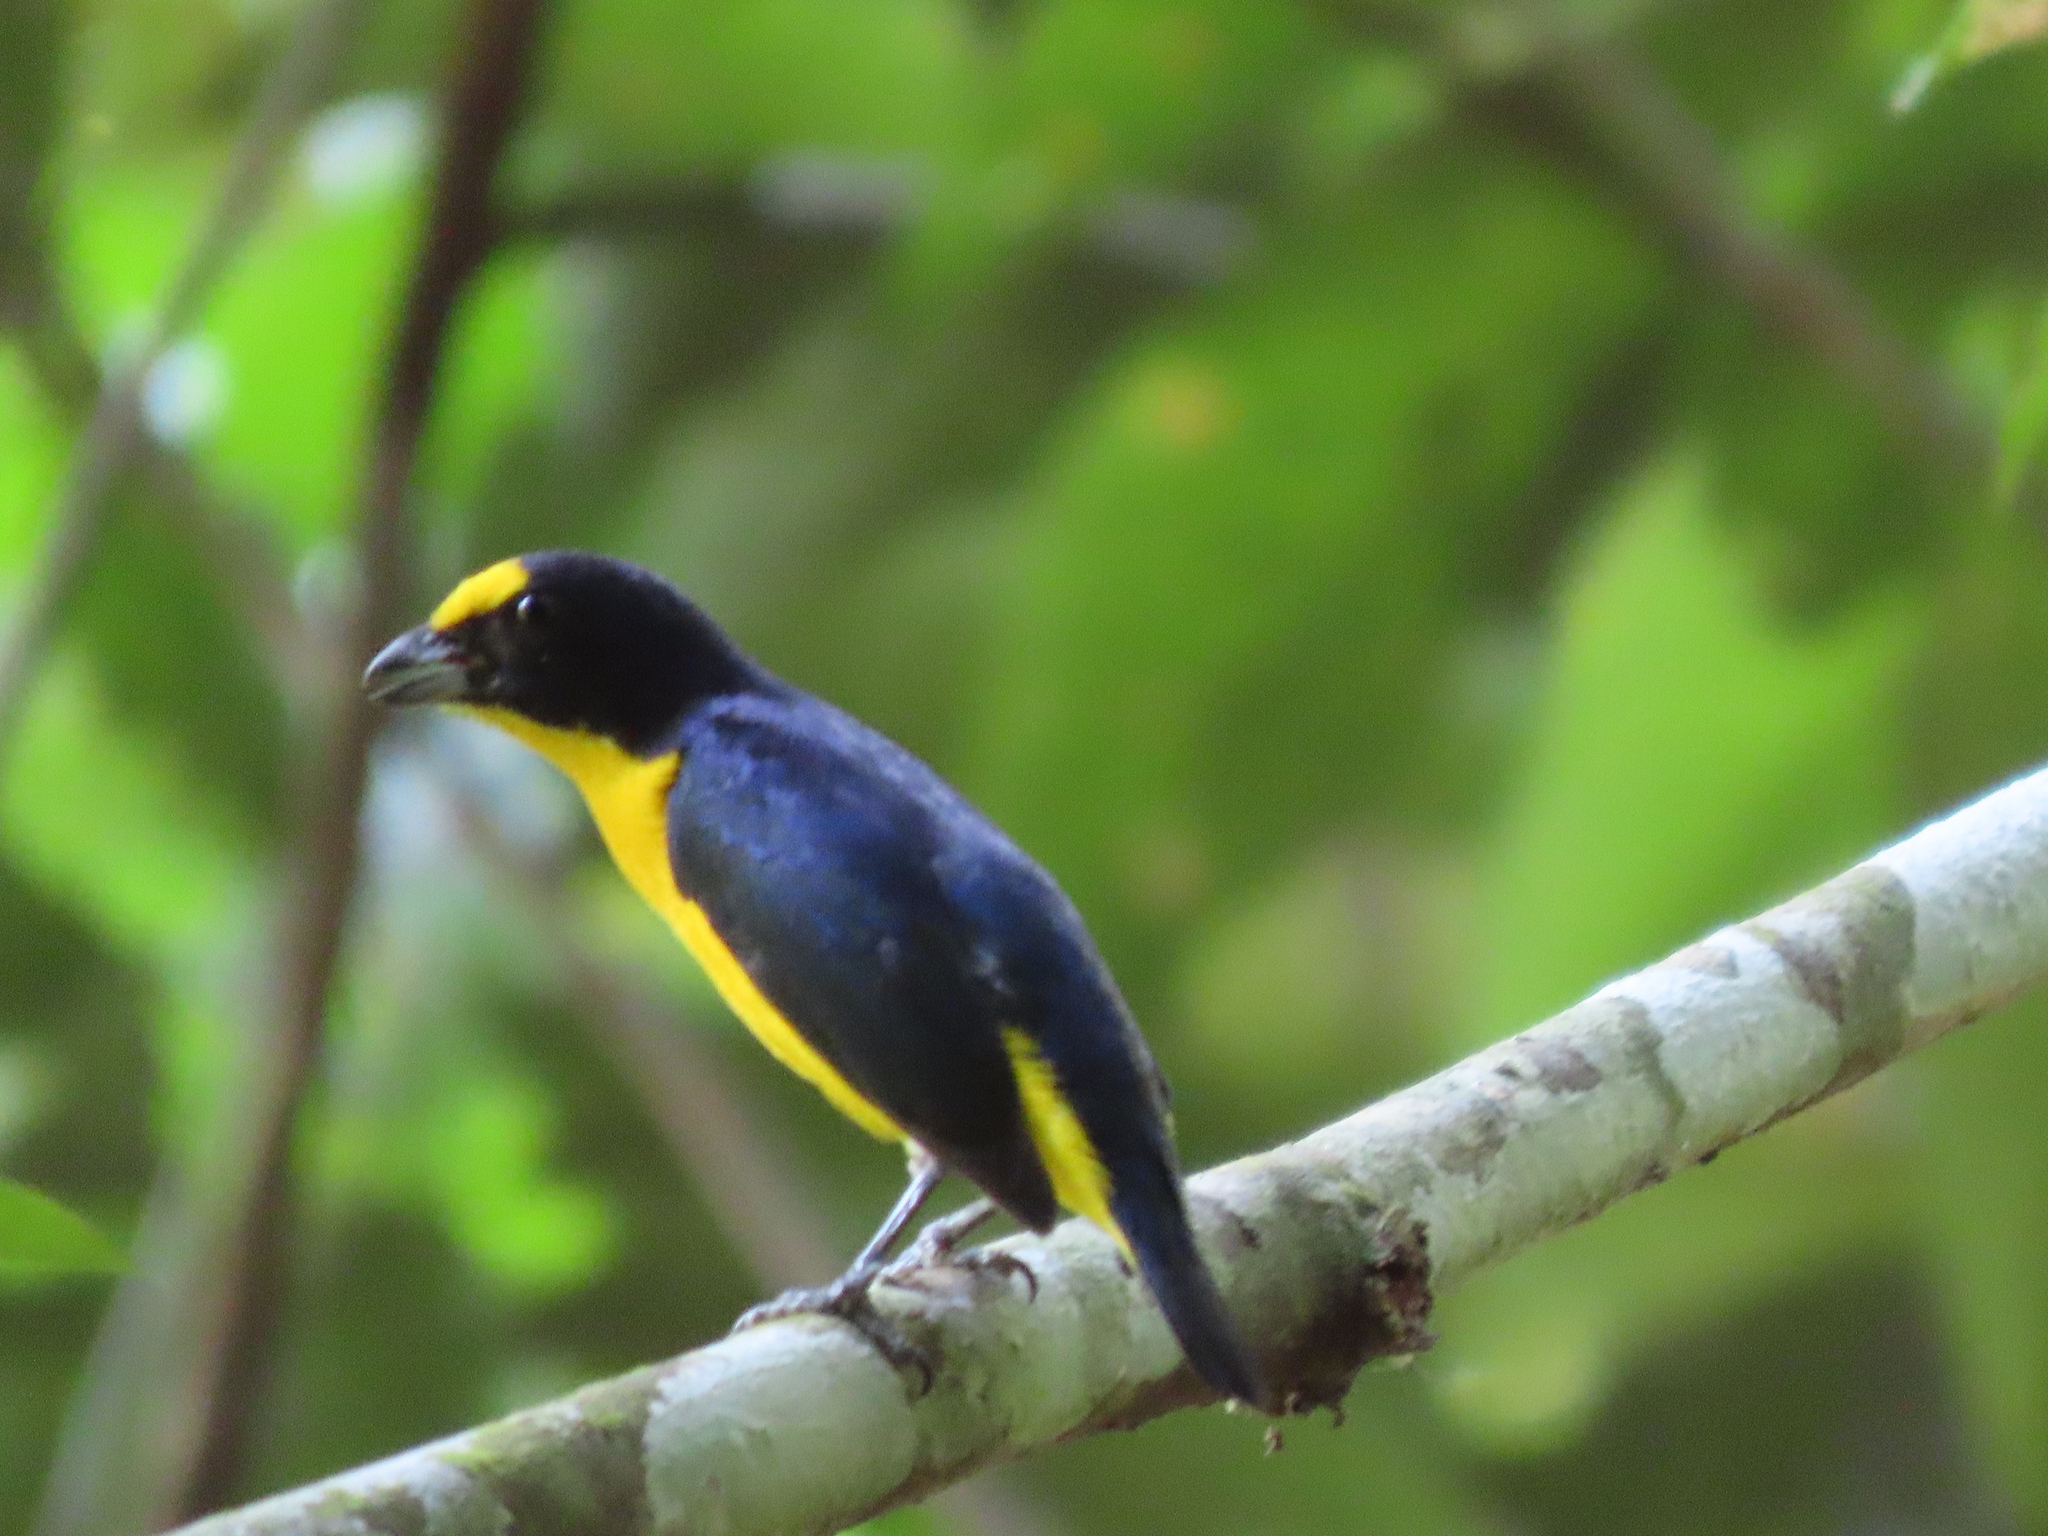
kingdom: Animalia
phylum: Chordata
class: Aves
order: Passeriformes
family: Fringillidae
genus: Euphonia
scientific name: Euphonia hirundinacea
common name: Yellow-throated euphonia
